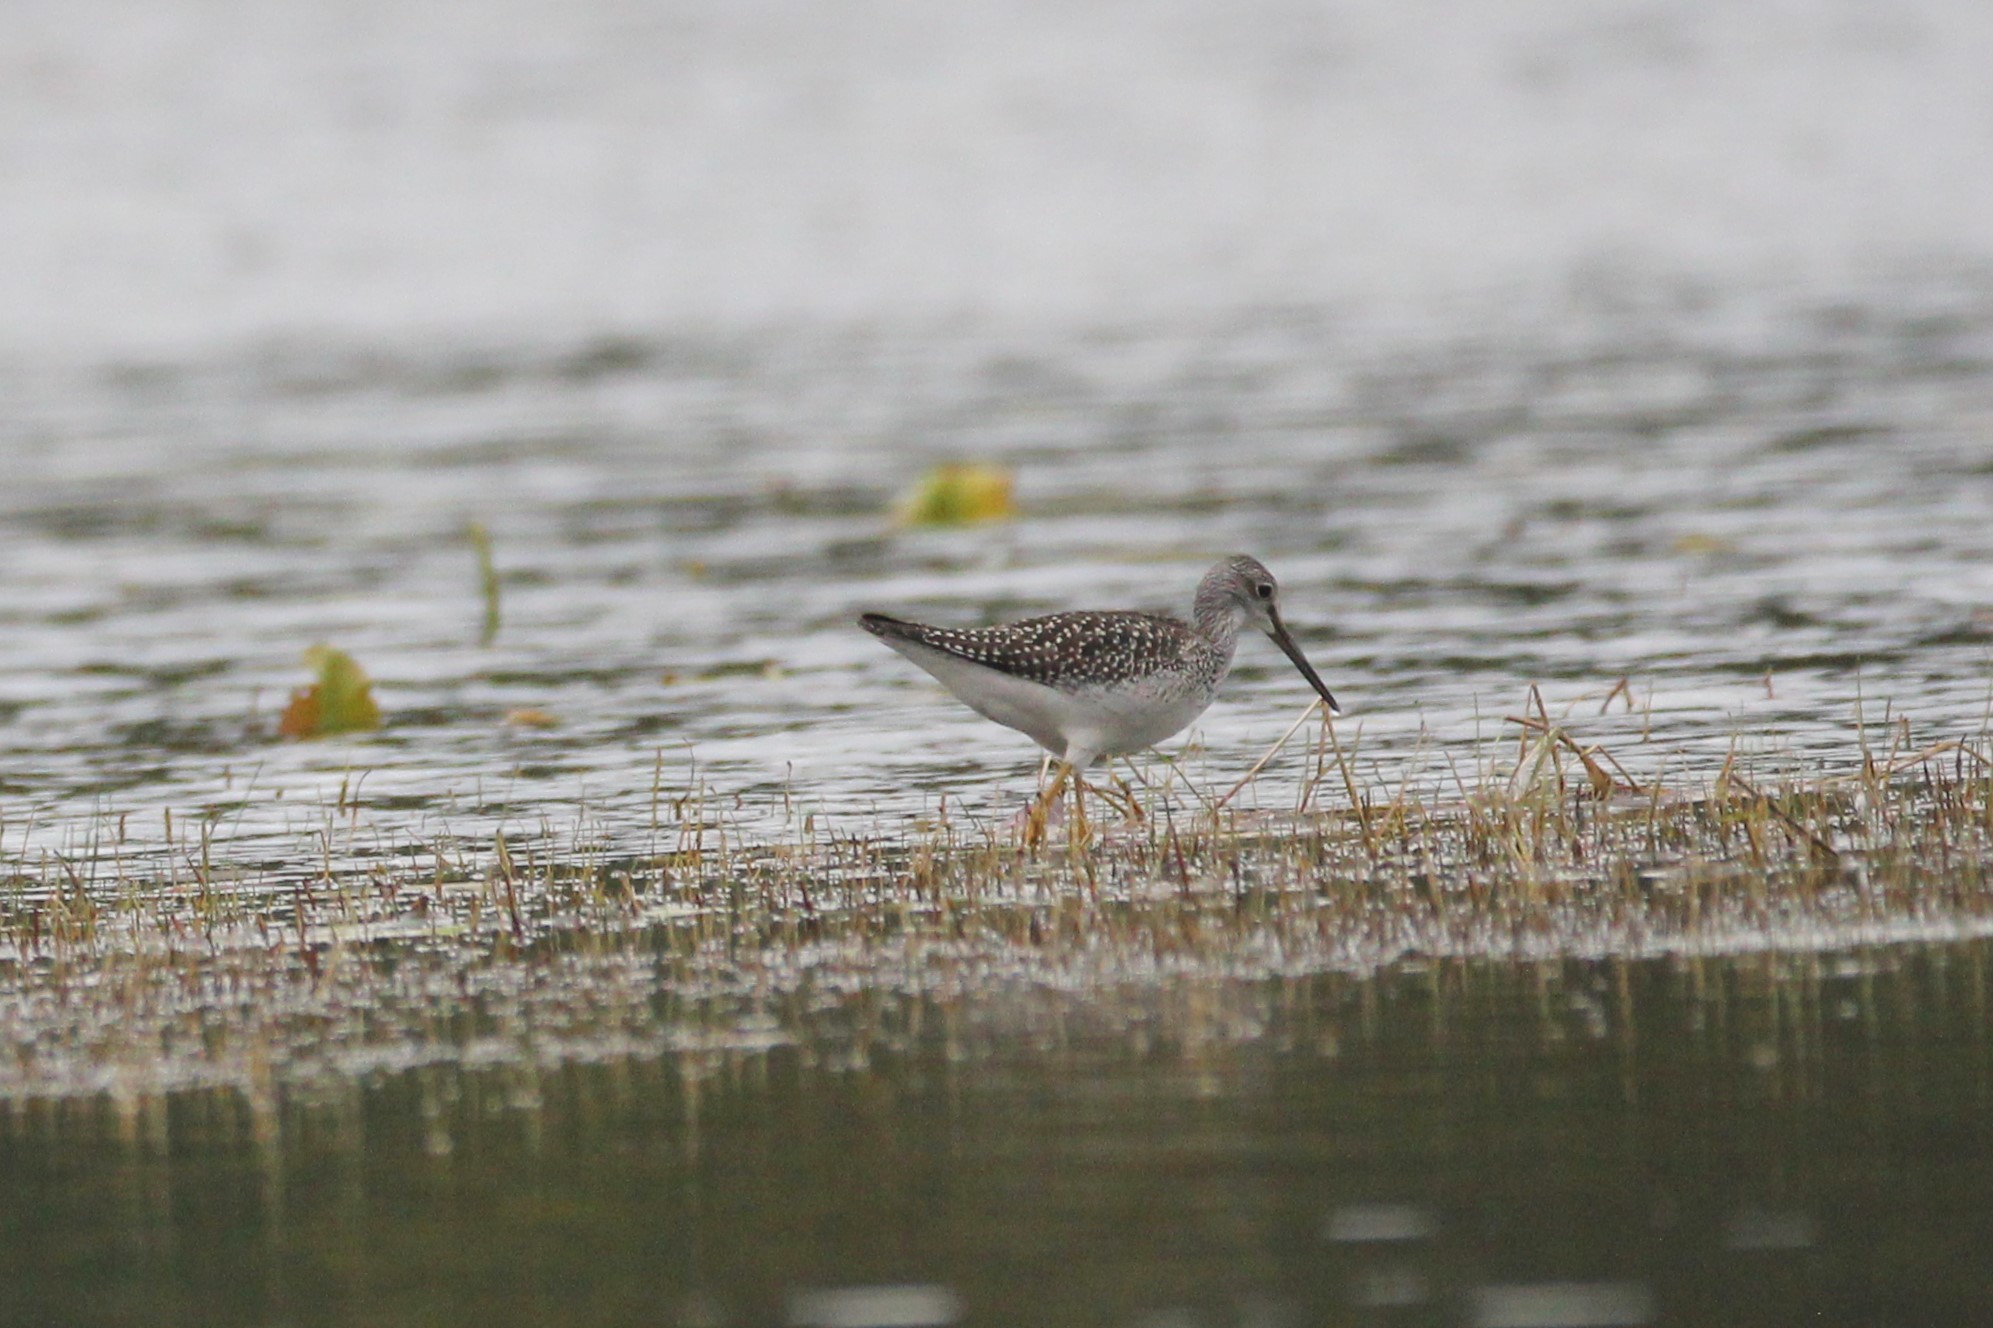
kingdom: Animalia
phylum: Chordata
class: Aves
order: Charadriiformes
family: Scolopacidae
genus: Tringa
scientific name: Tringa melanoleuca
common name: Greater yellowlegs
